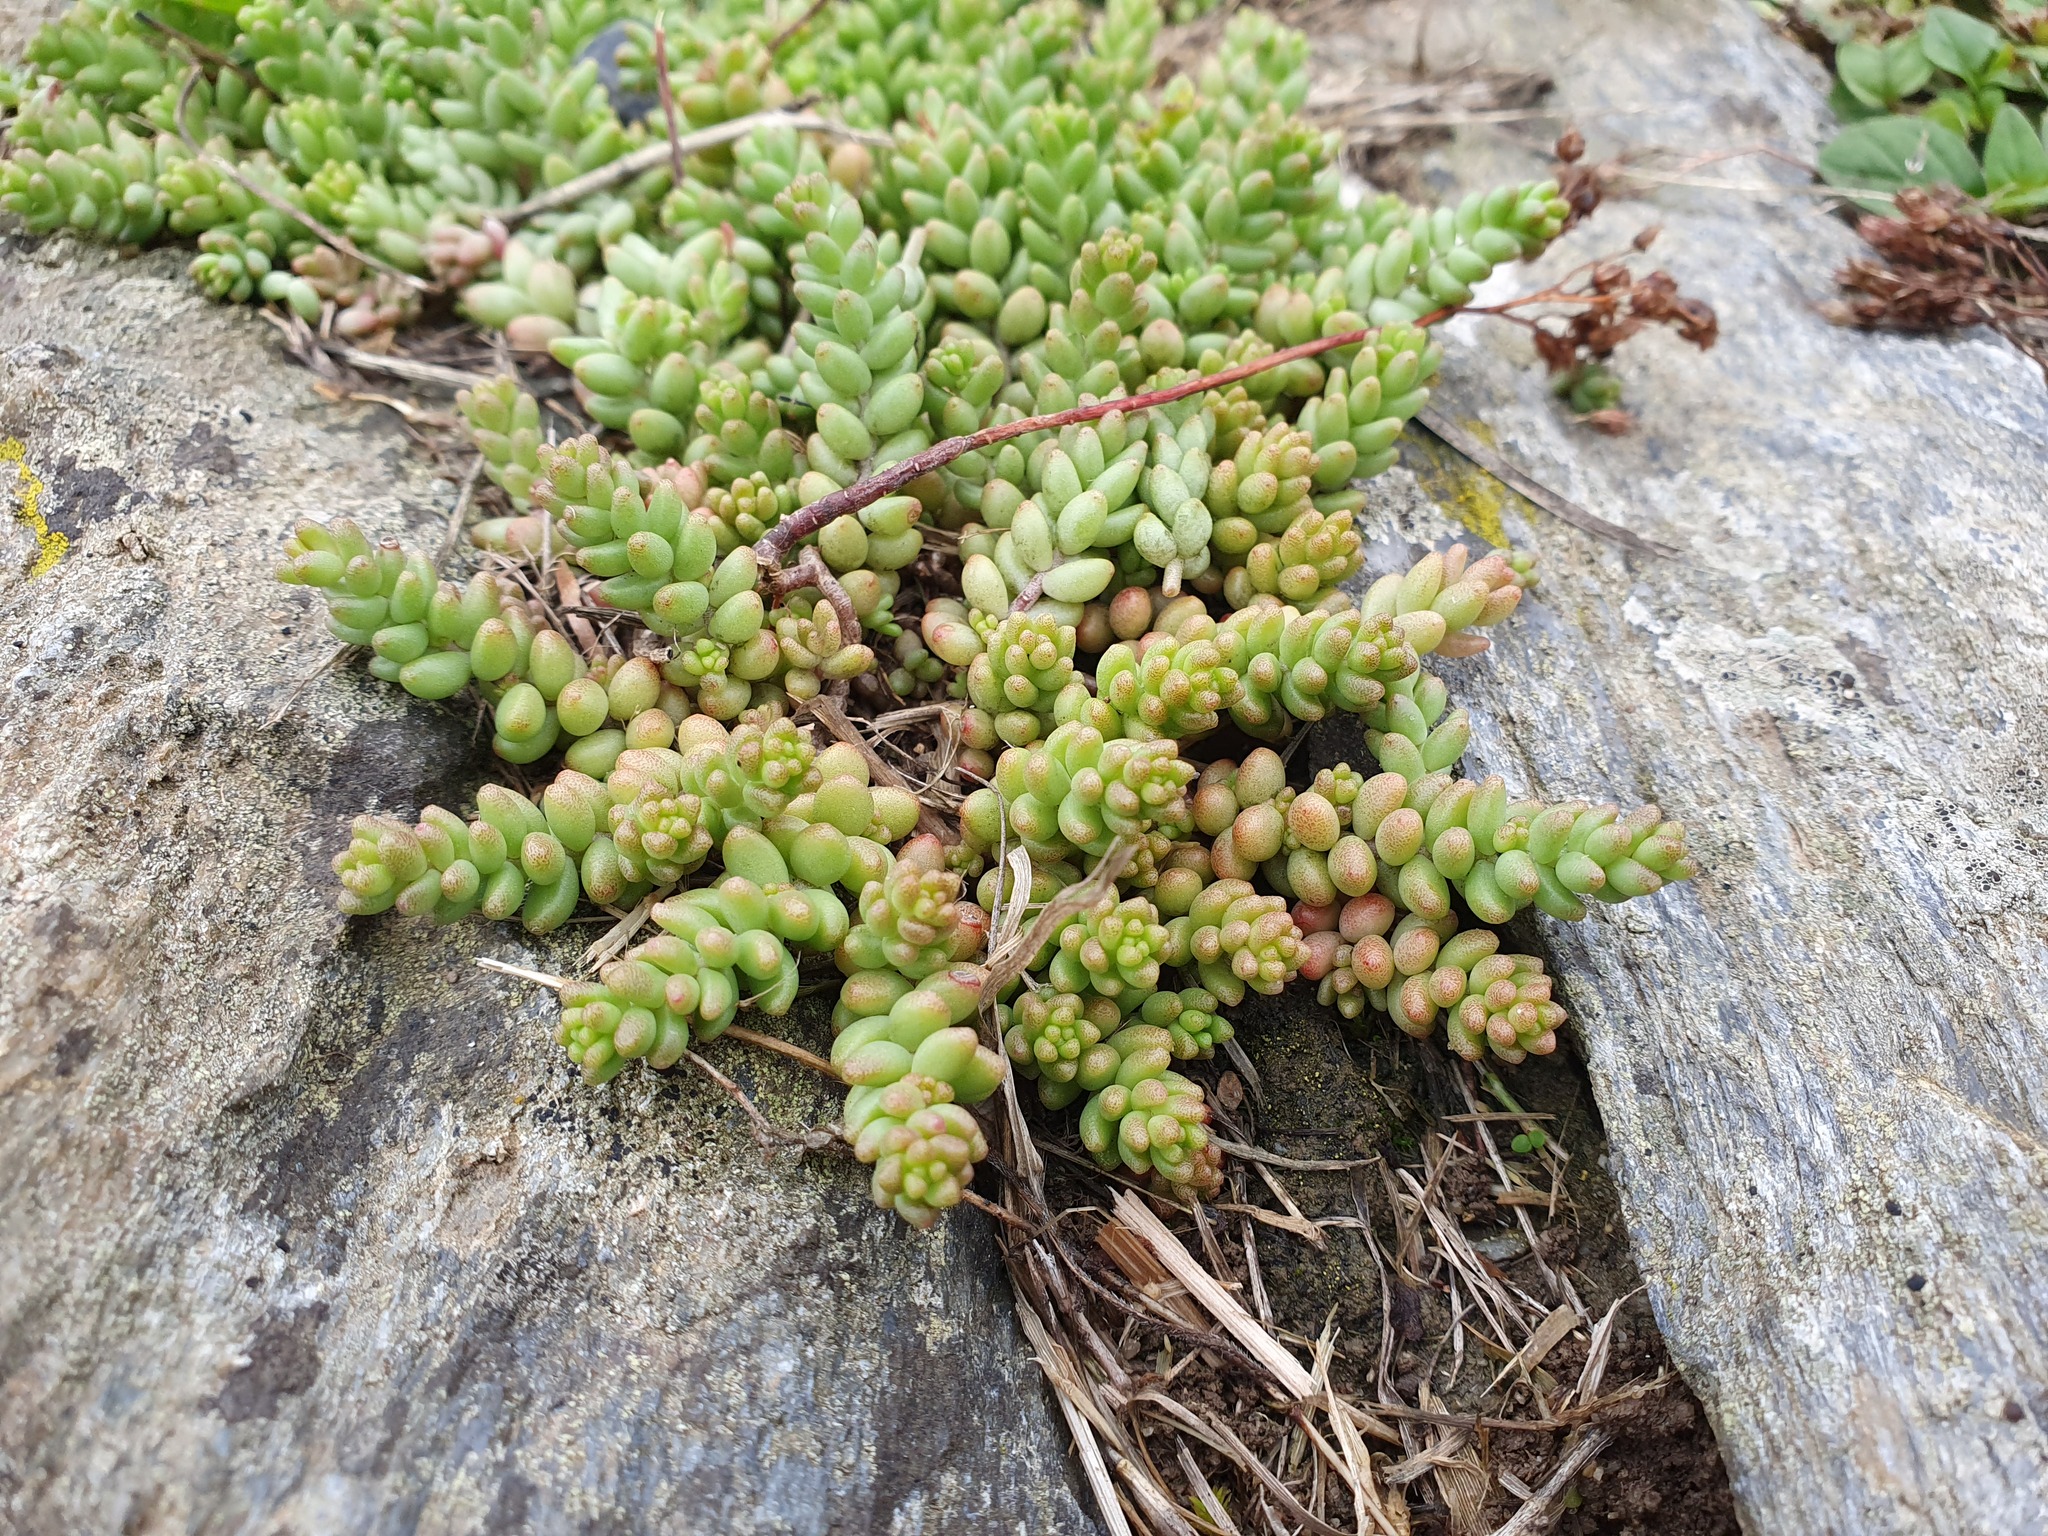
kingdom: Plantae
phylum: Tracheophyta
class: Magnoliopsida
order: Saxifragales
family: Crassulaceae
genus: Sedum
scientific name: Sedum album
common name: White stonecrop
